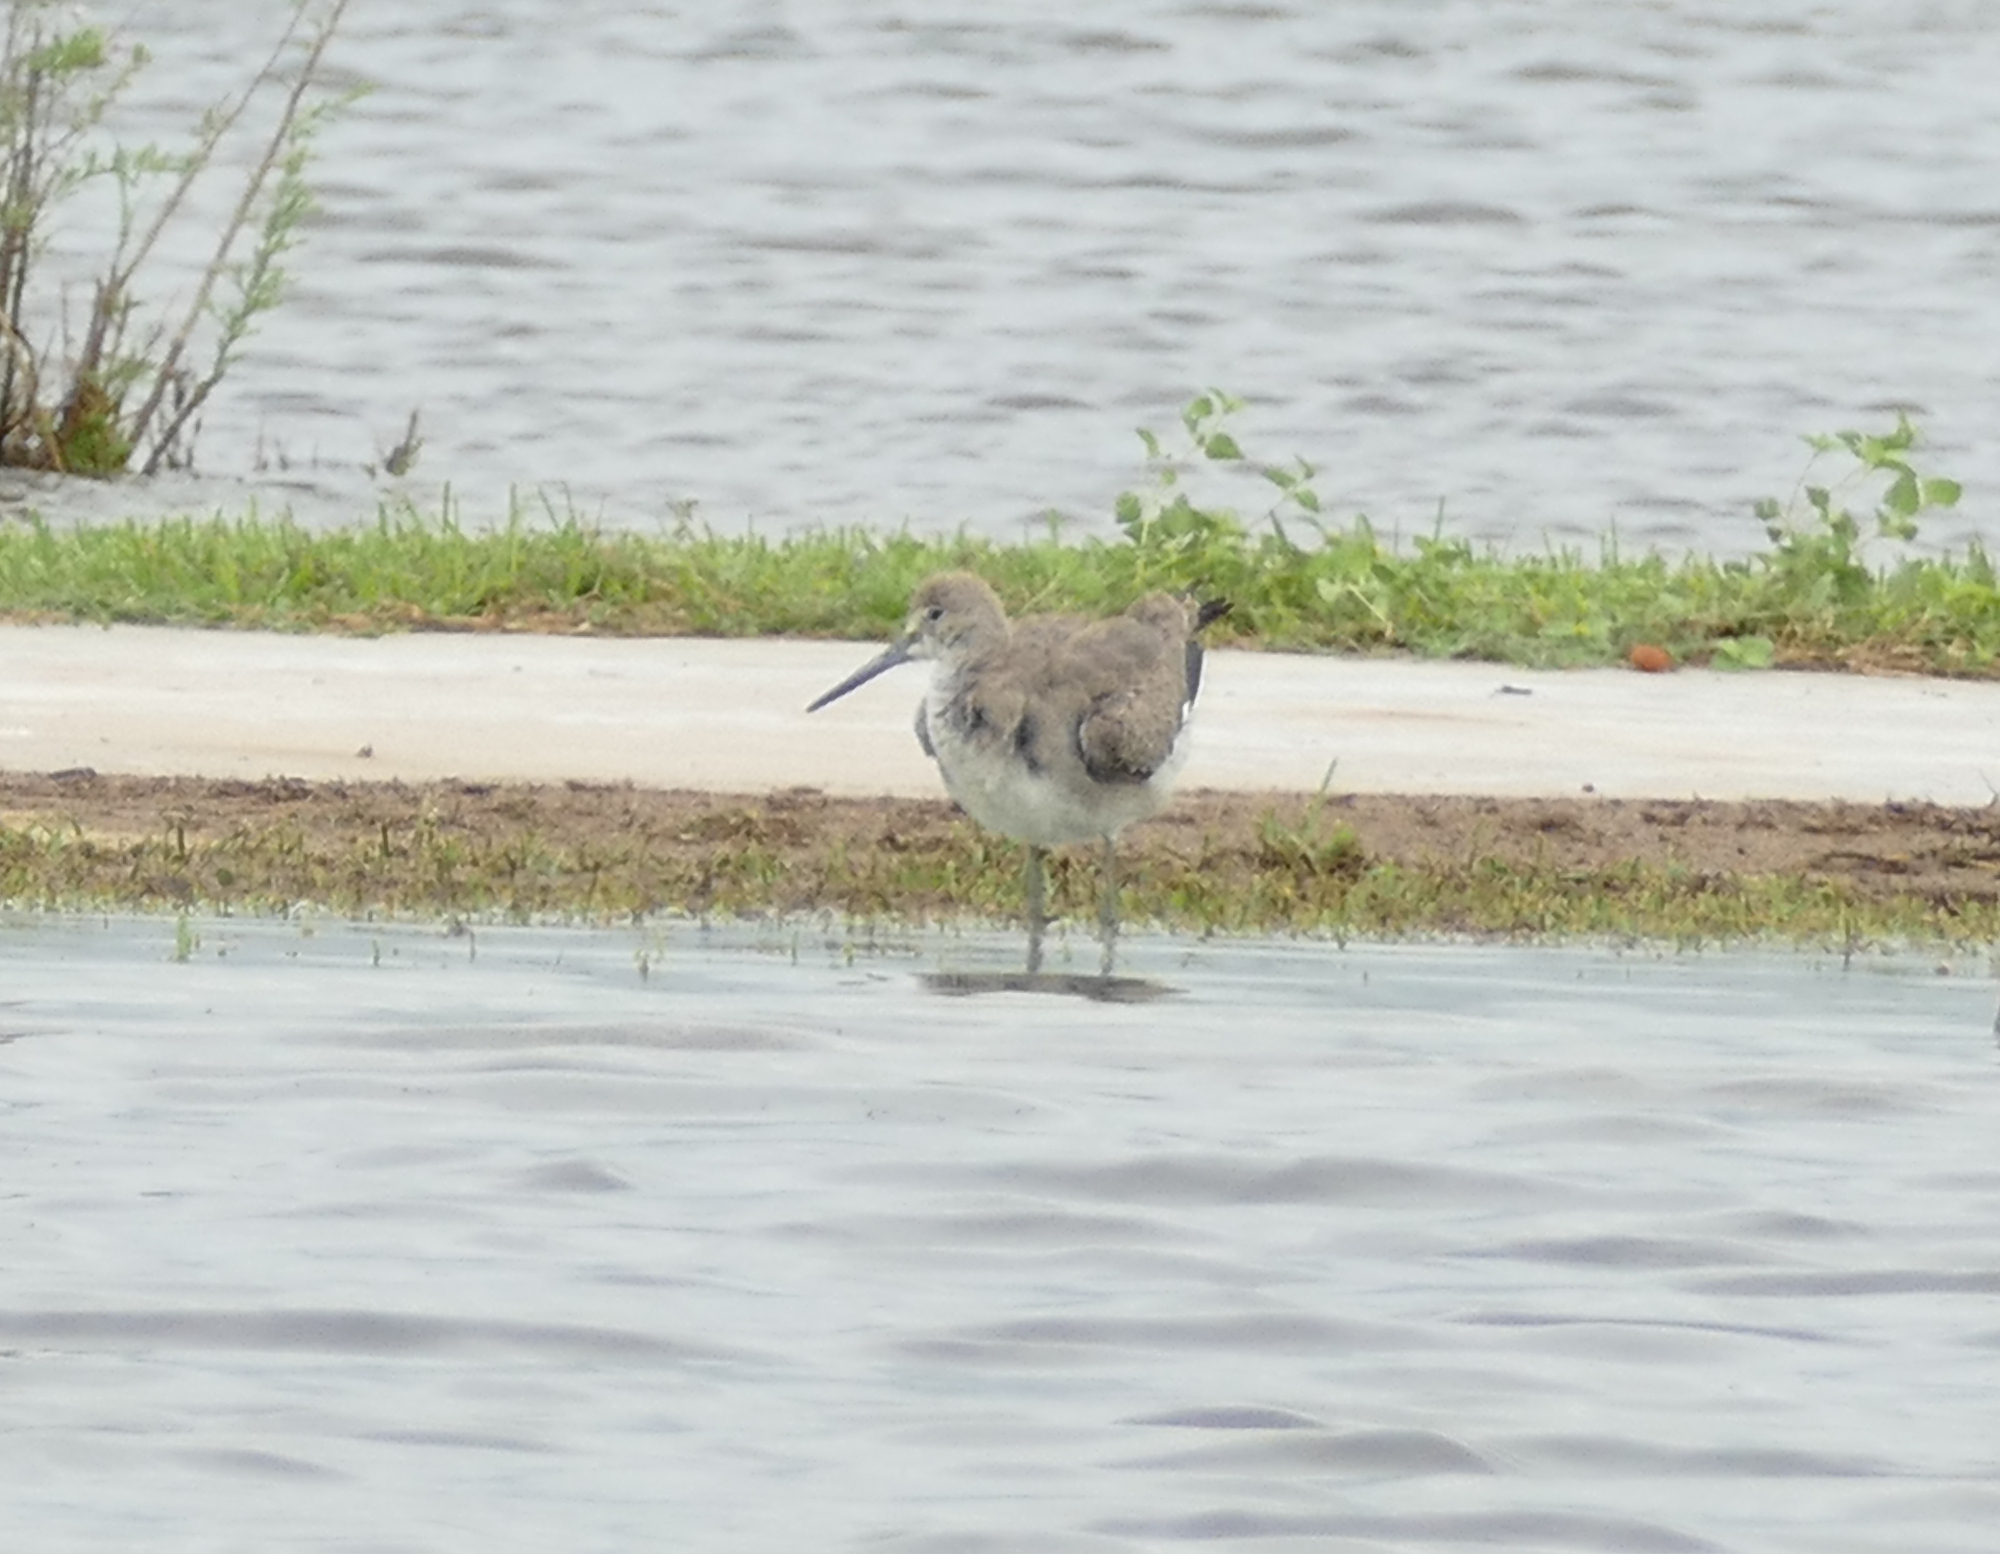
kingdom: Animalia
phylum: Chordata
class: Aves
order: Charadriiformes
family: Scolopacidae
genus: Tringa
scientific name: Tringa semipalmata
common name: Willet
